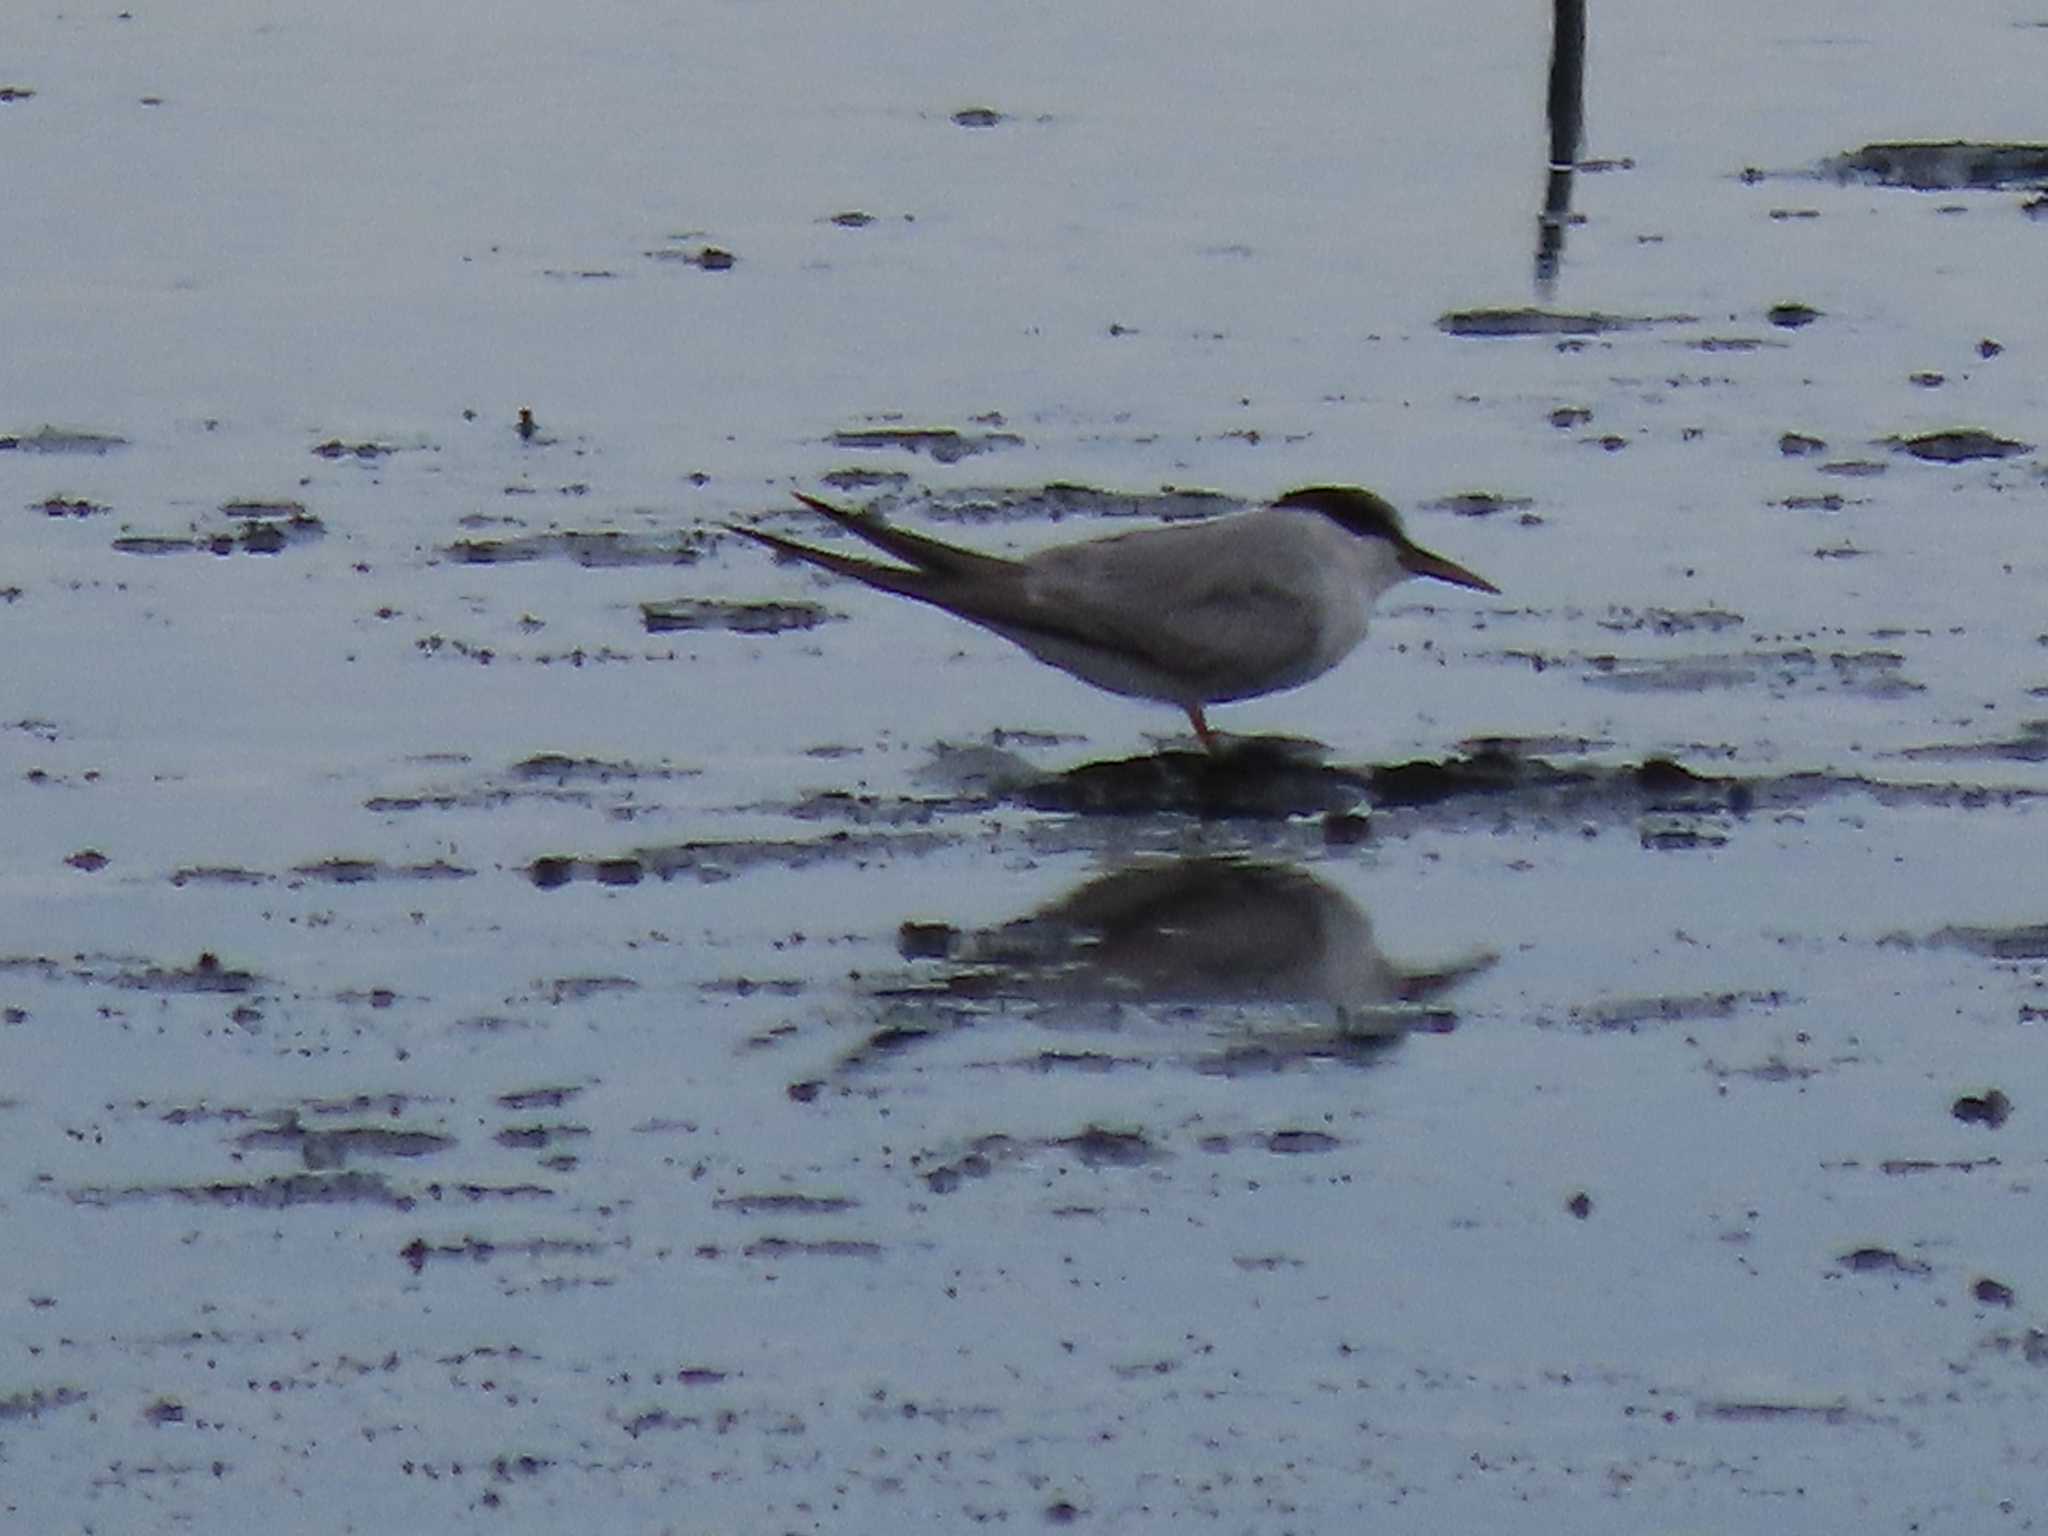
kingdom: Animalia
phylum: Chordata
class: Aves
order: Charadriiformes
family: Laridae
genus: Sternula
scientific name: Sternula antillarum
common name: Least tern
